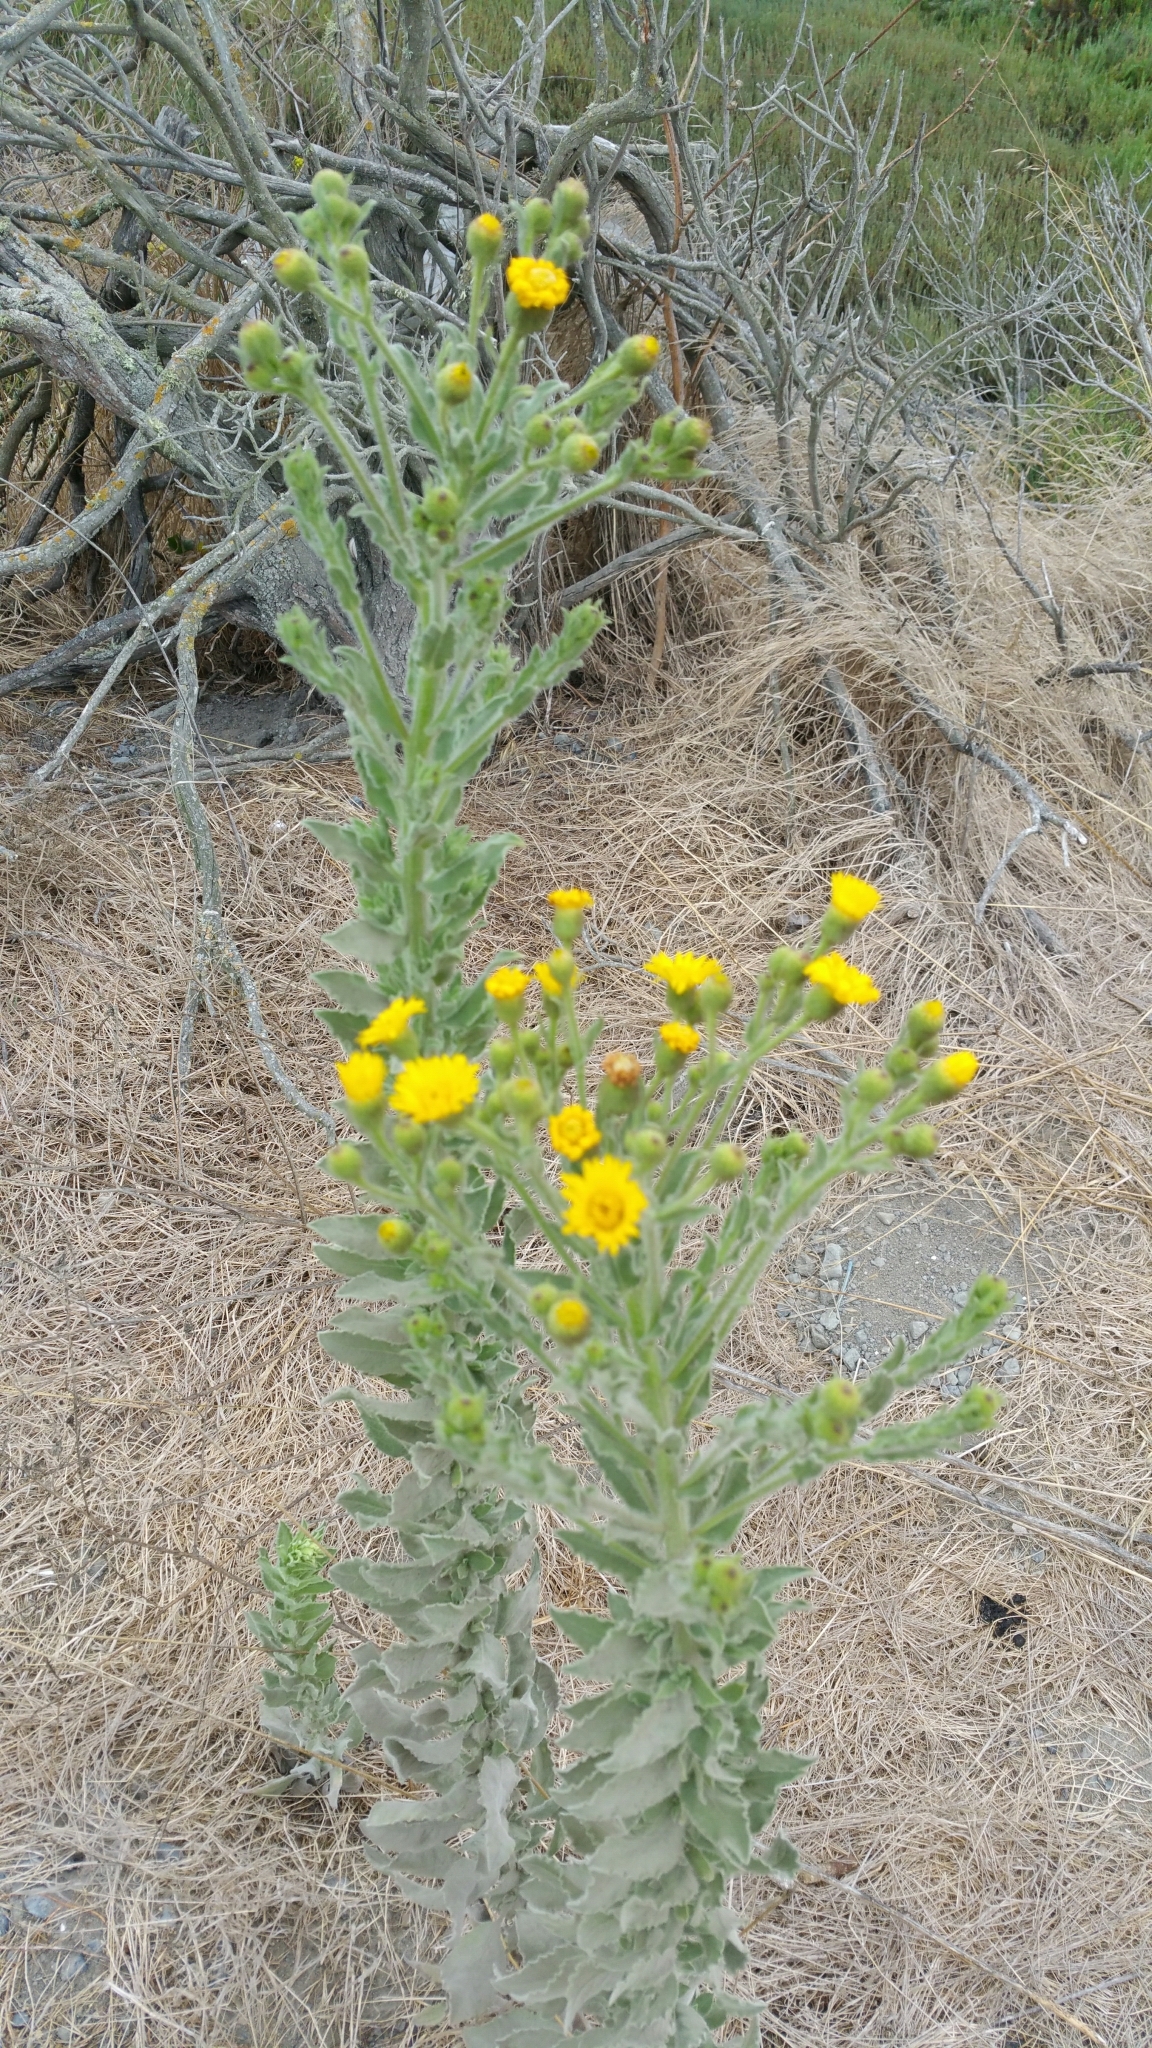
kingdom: Plantae
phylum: Tracheophyta
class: Magnoliopsida
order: Asterales
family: Asteraceae
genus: Heterotheca
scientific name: Heterotheca grandiflora
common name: Telegraphweed
